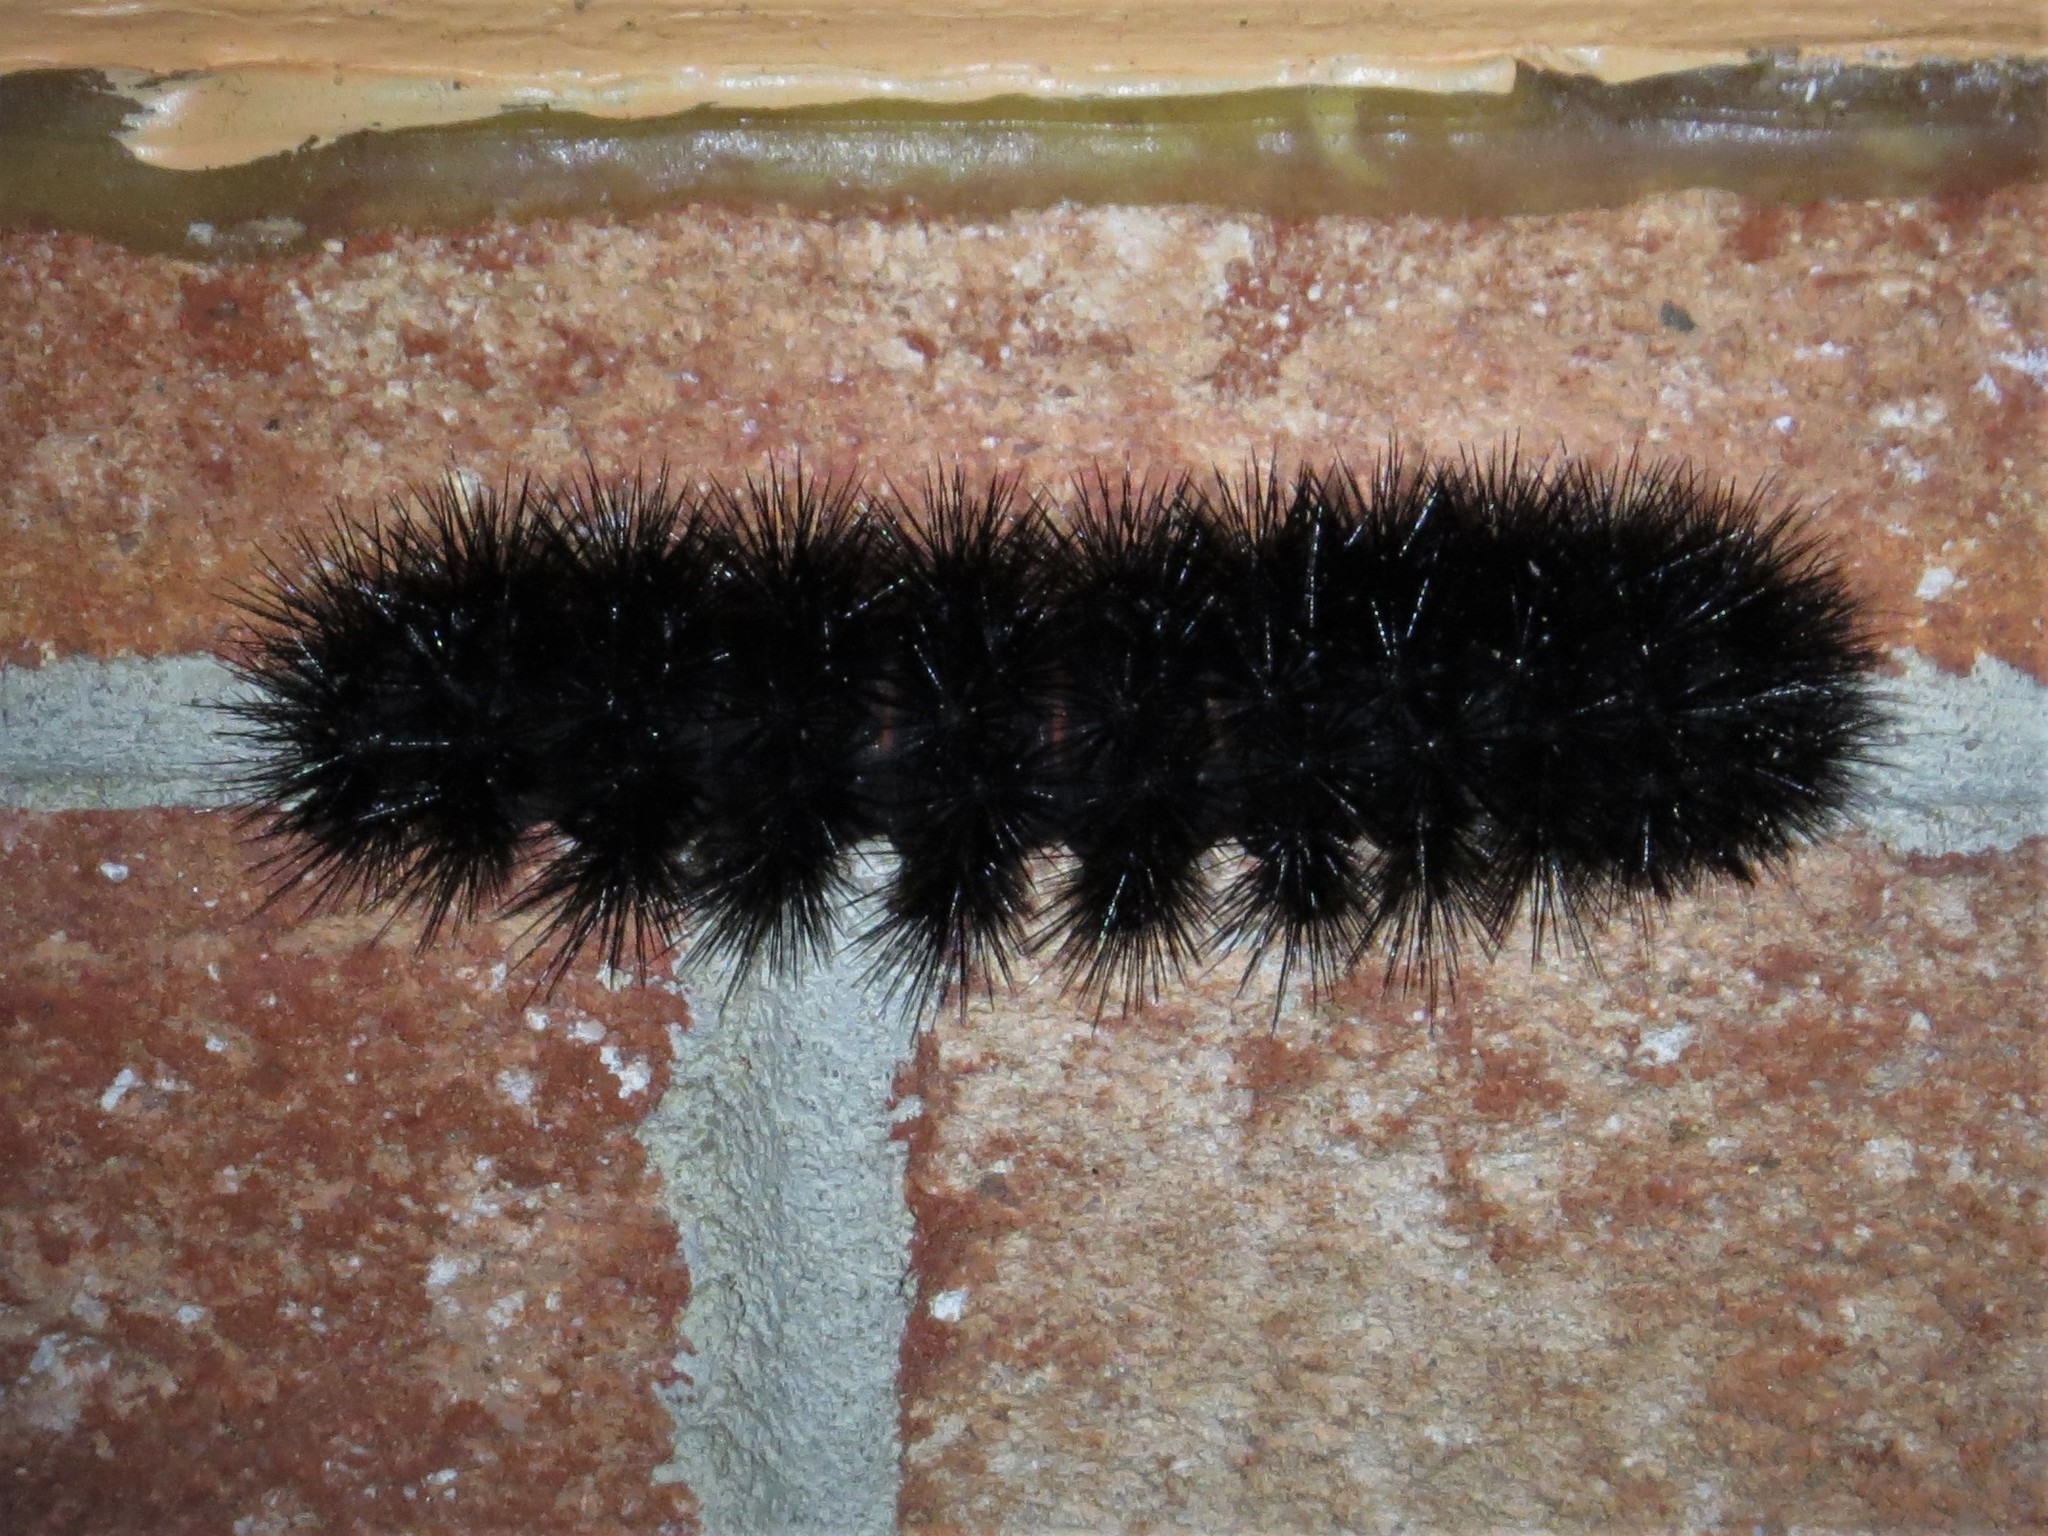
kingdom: Animalia
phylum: Arthropoda
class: Insecta
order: Lepidoptera
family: Erebidae
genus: Hypercompe
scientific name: Hypercompe scribonia
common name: Giant leopard moth
